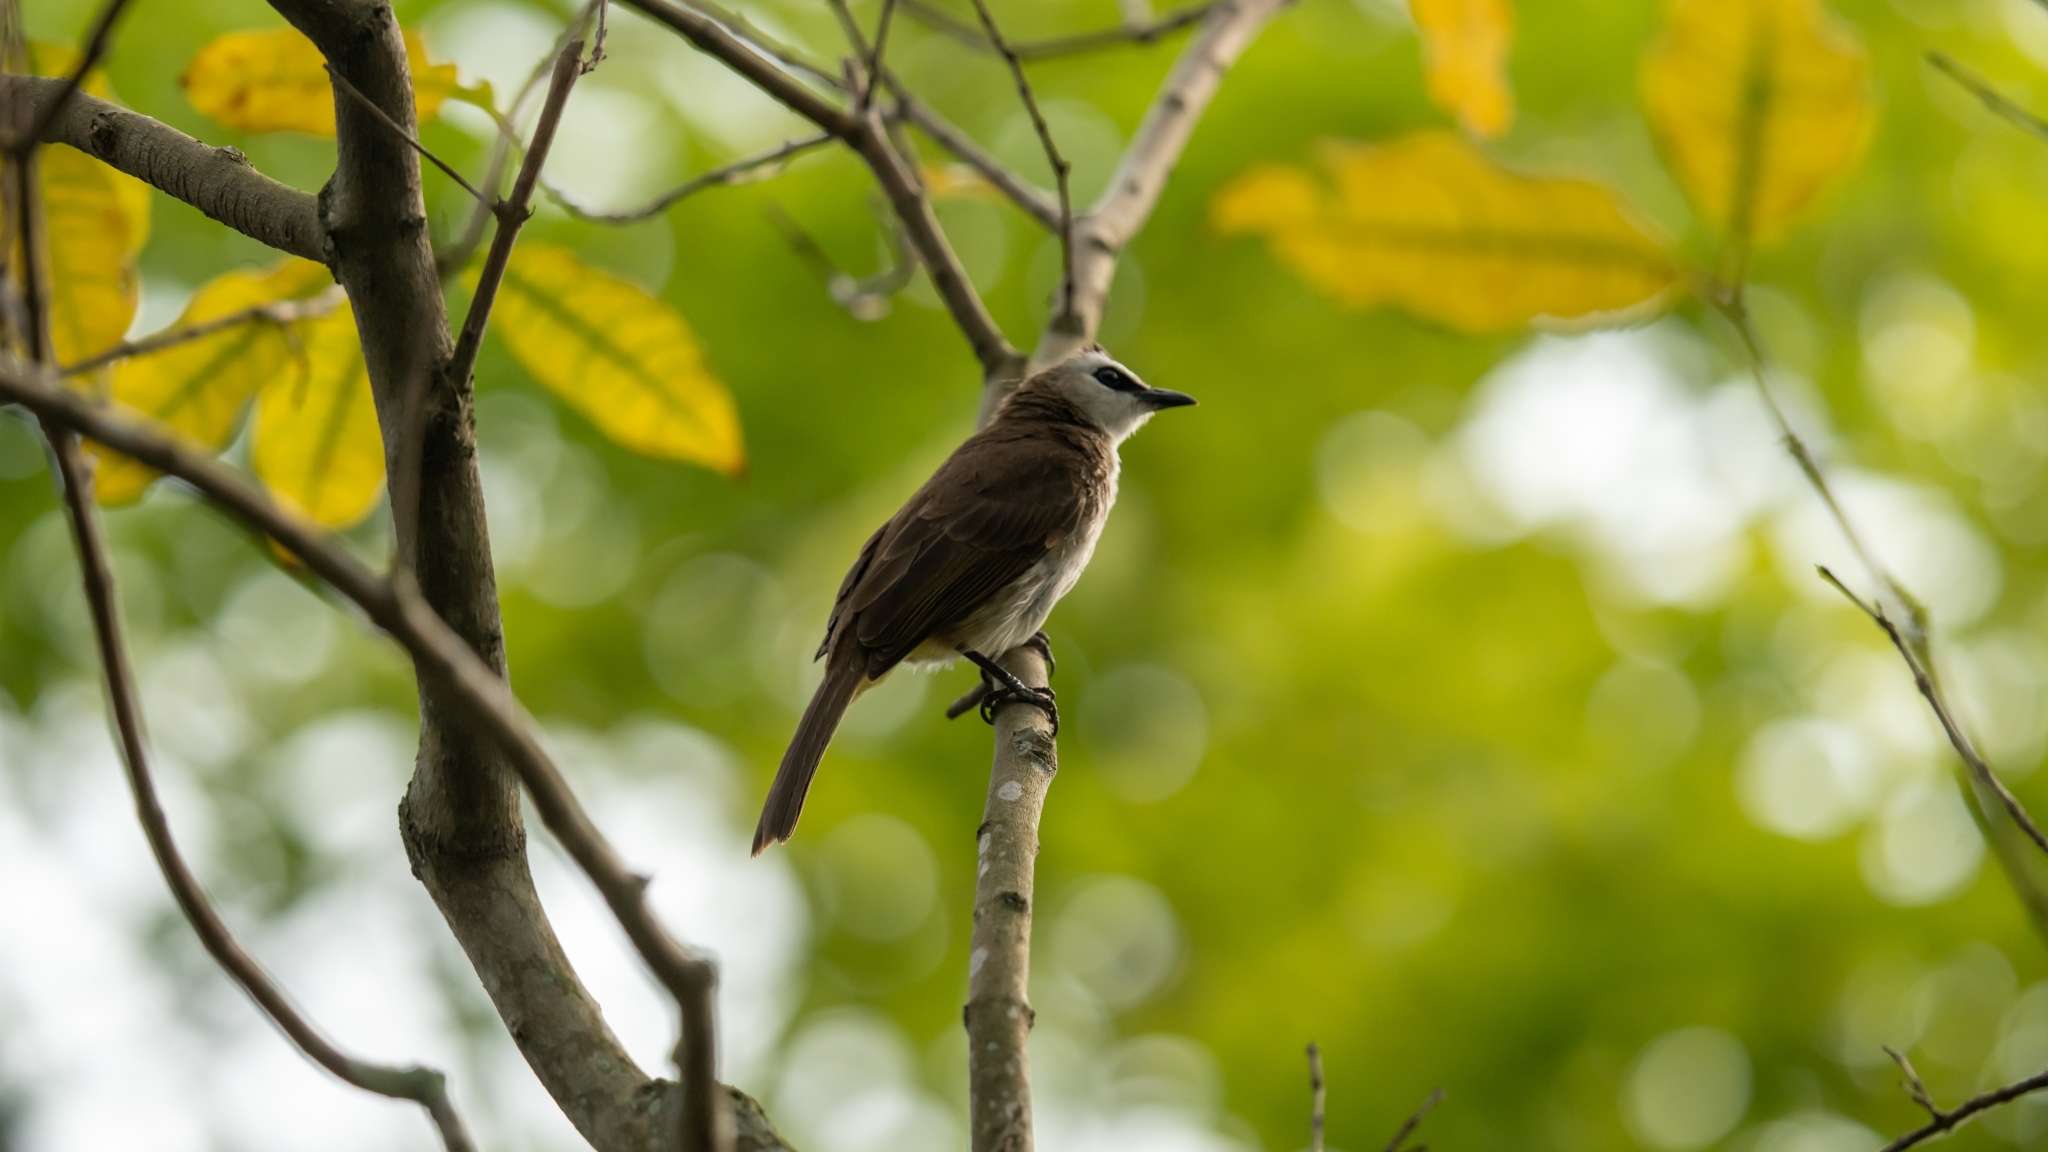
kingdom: Animalia
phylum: Chordata
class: Aves
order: Passeriformes
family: Pycnonotidae
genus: Pycnonotus
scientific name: Pycnonotus goiavier
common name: Yellow-vented bulbul
